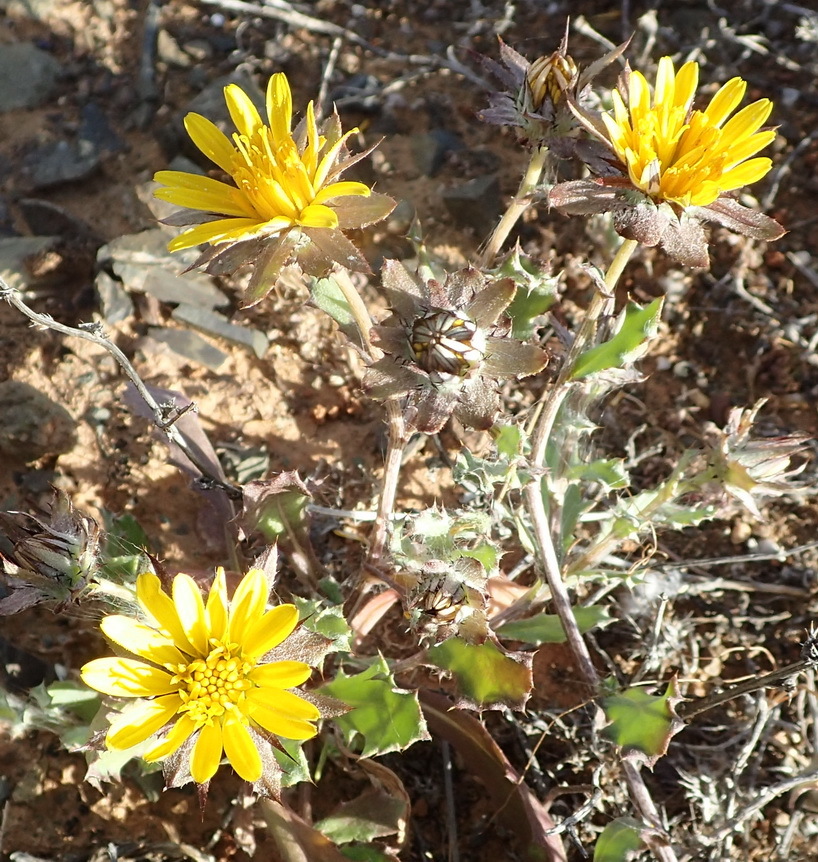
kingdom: Plantae
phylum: Tracheophyta
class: Magnoliopsida
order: Asterales
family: Asteraceae
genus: Cuspidia
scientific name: Cuspidia cernua
